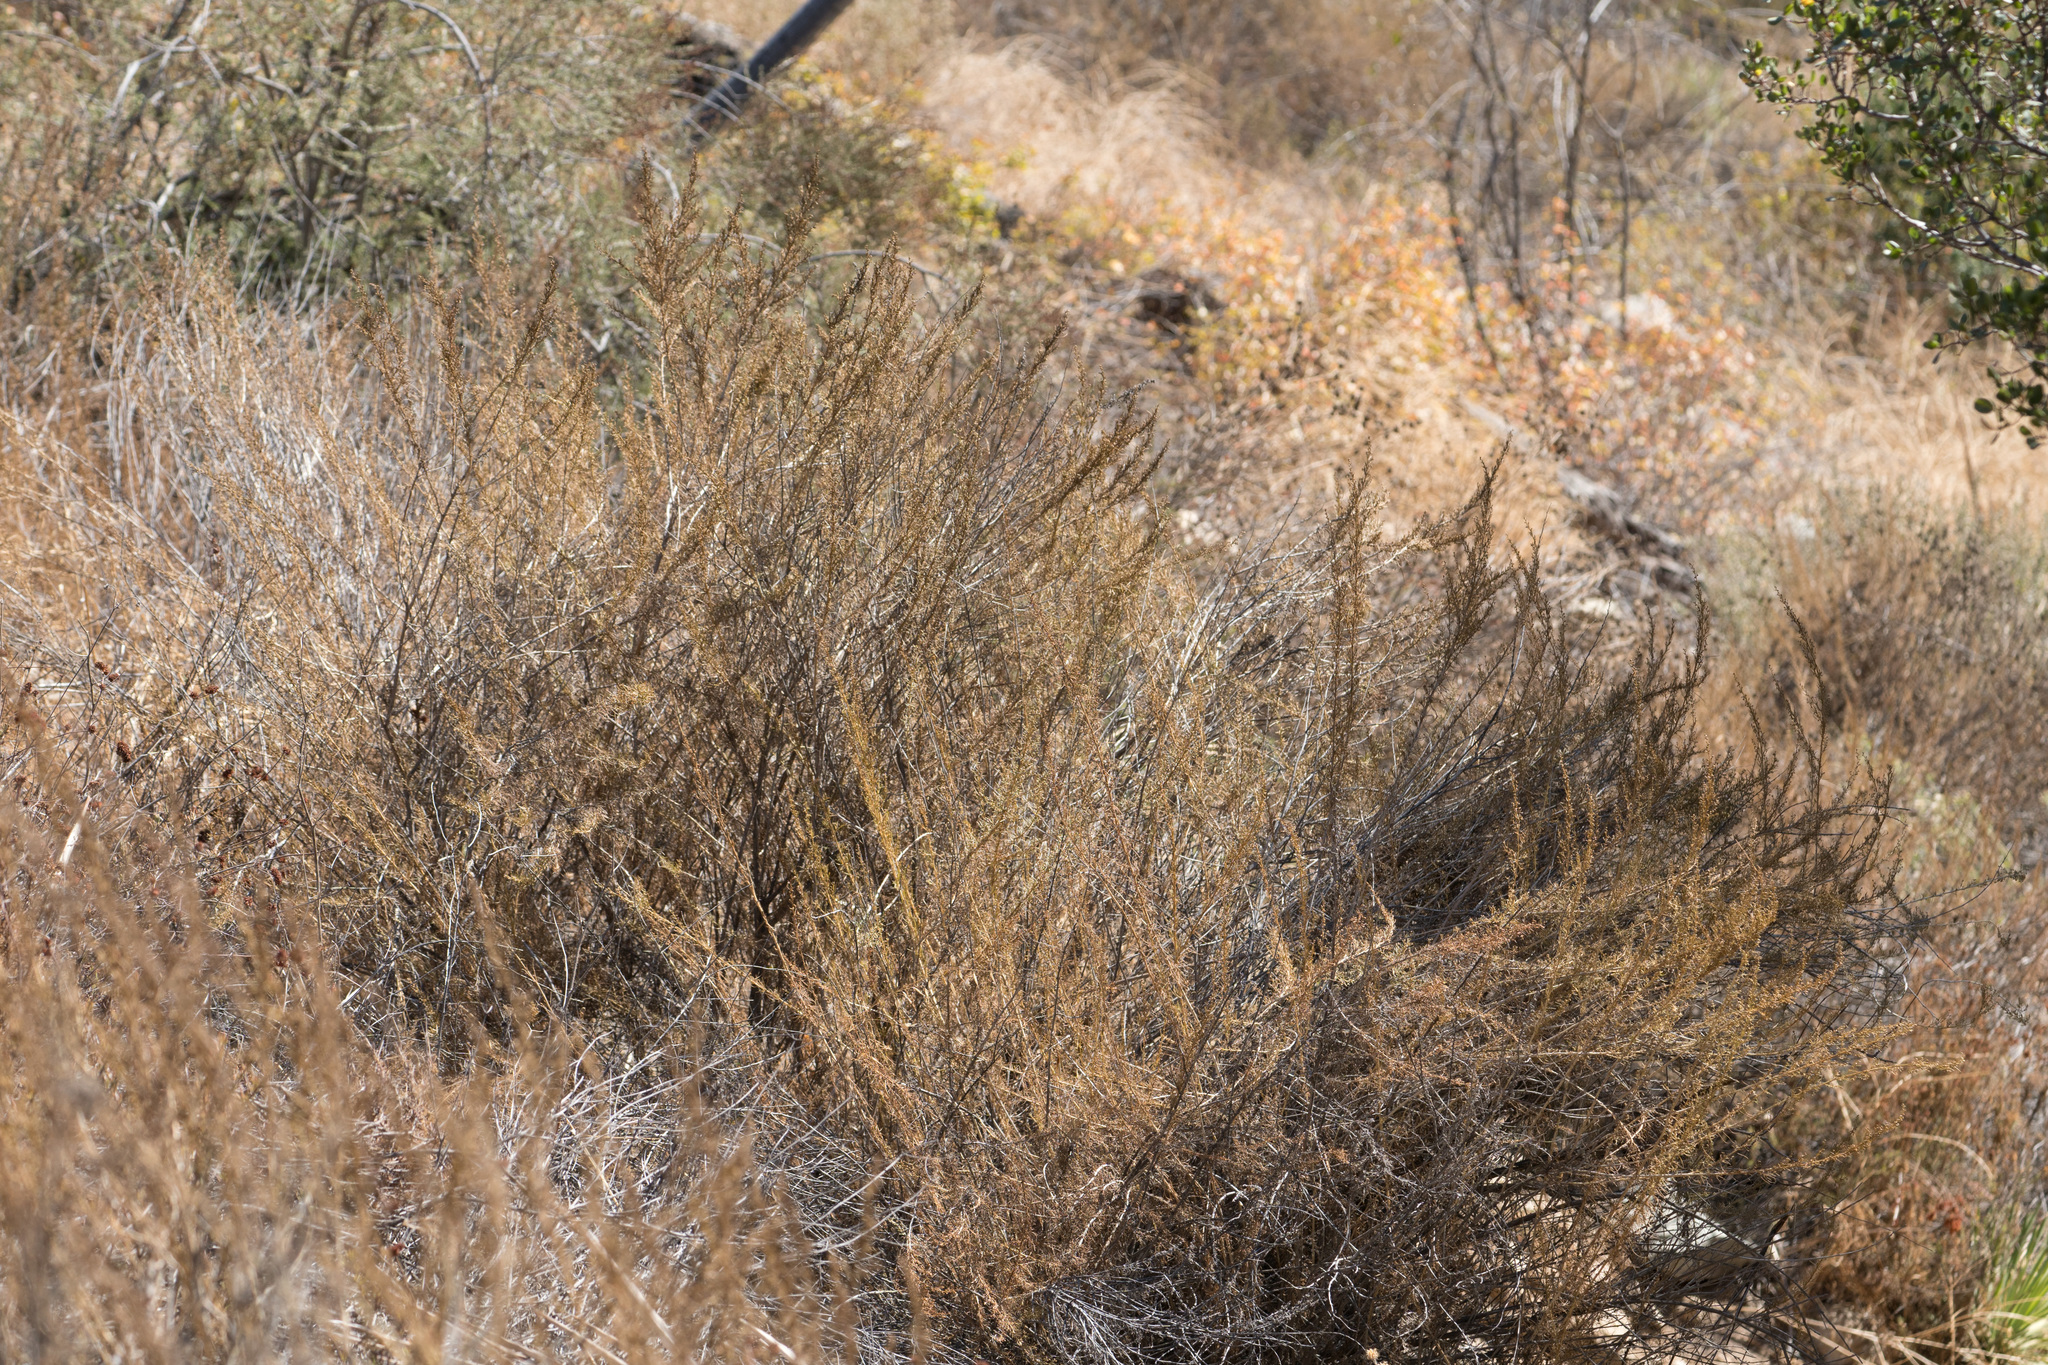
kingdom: Plantae
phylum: Tracheophyta
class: Magnoliopsida
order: Asterales
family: Asteraceae
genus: Artemisia
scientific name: Artemisia californica
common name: California sagebrush
